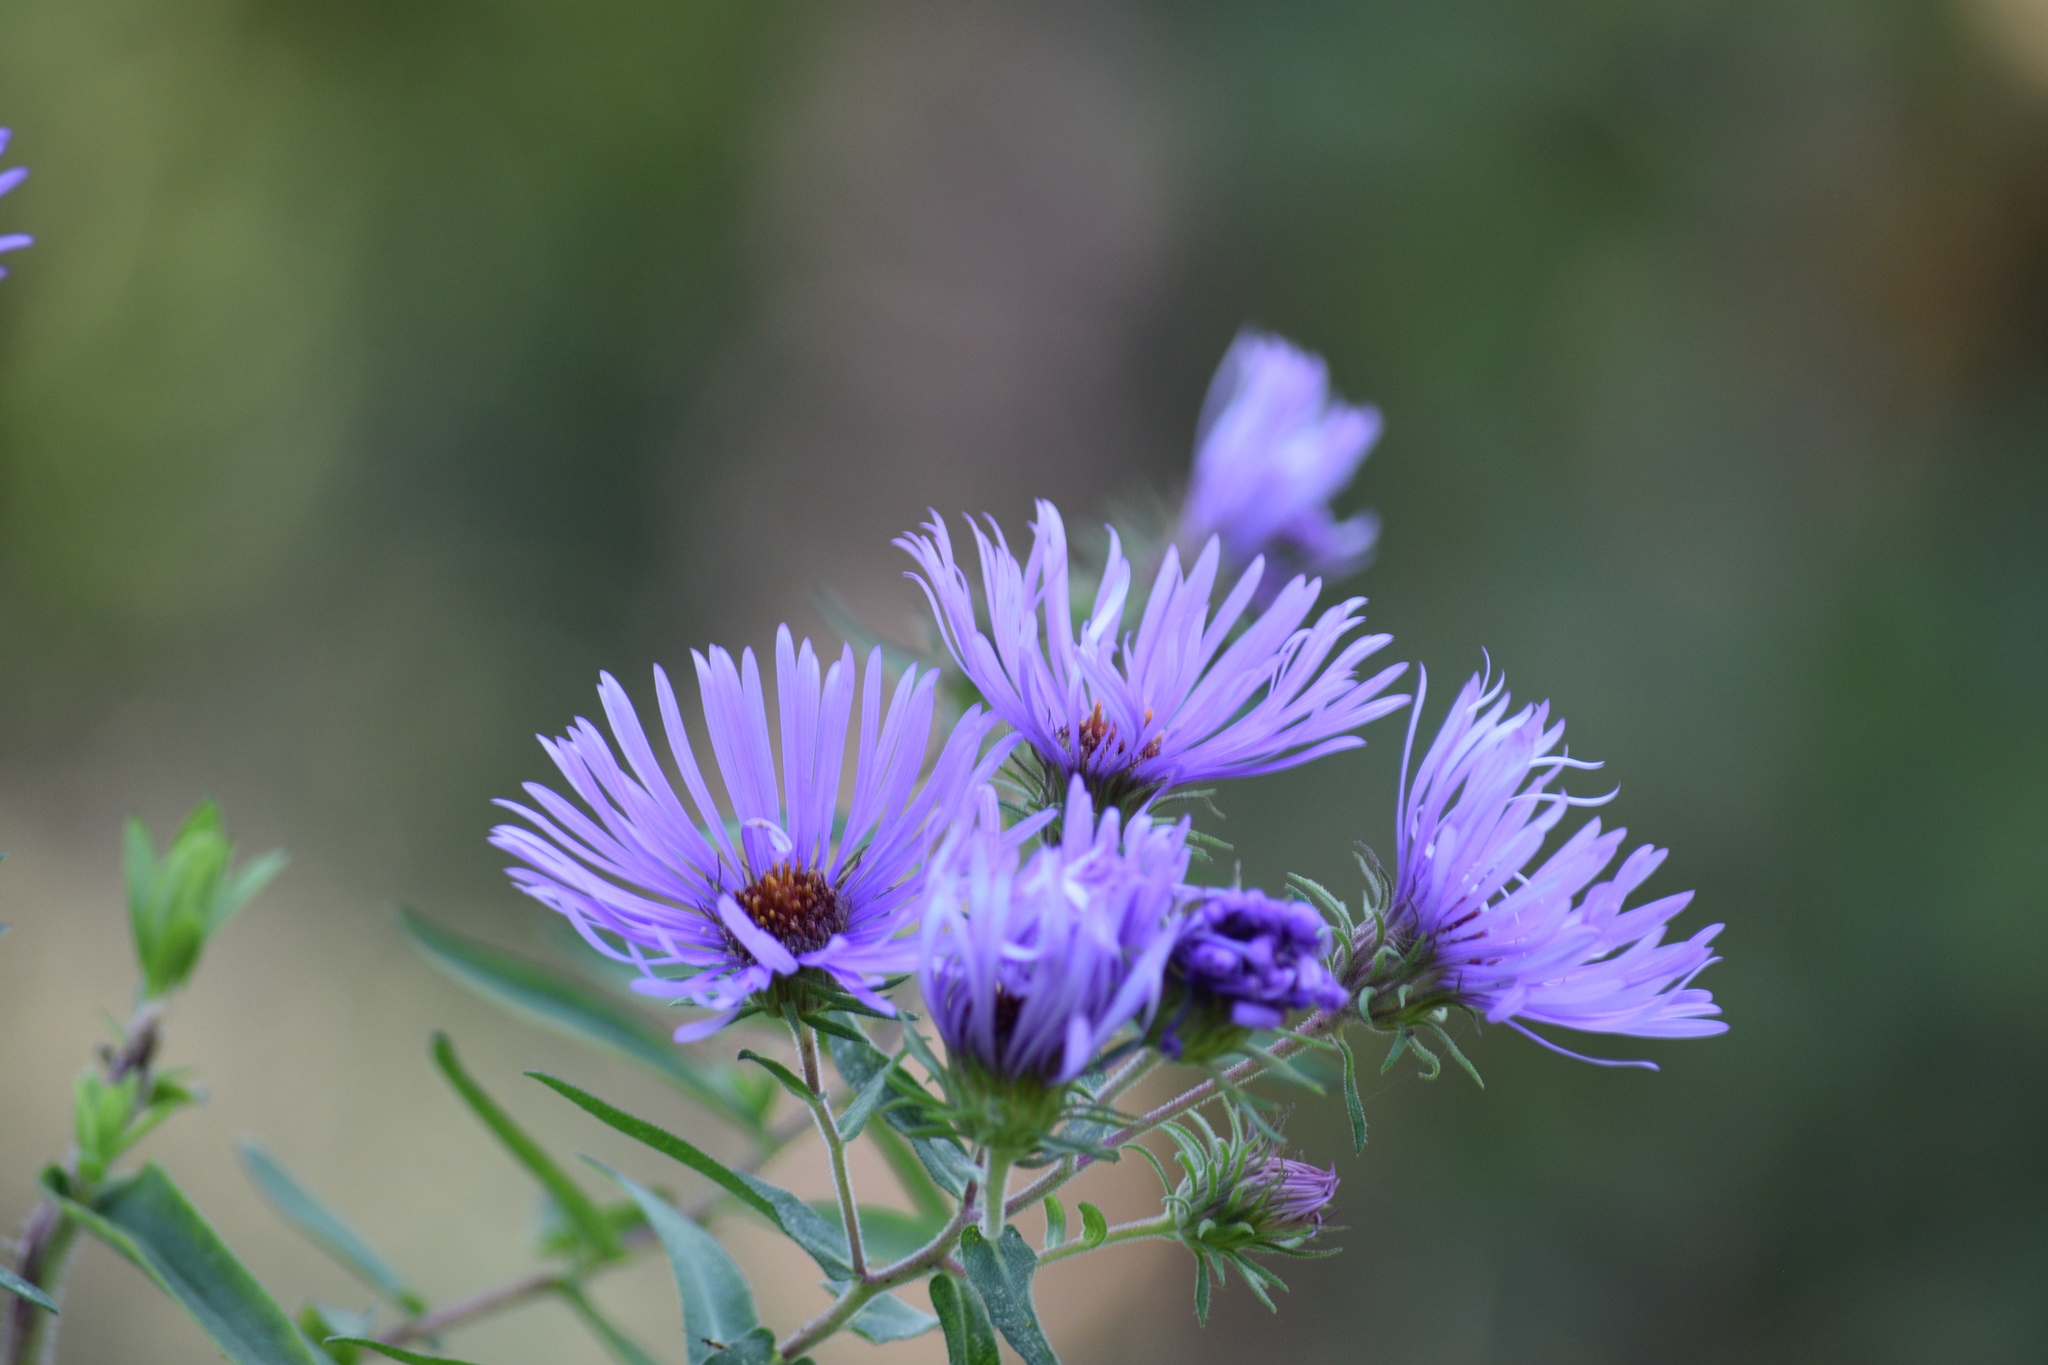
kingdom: Plantae
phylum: Tracheophyta
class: Magnoliopsida
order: Asterales
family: Asteraceae
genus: Symphyotrichum
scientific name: Symphyotrichum novae-angliae
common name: Michaelmas daisy
